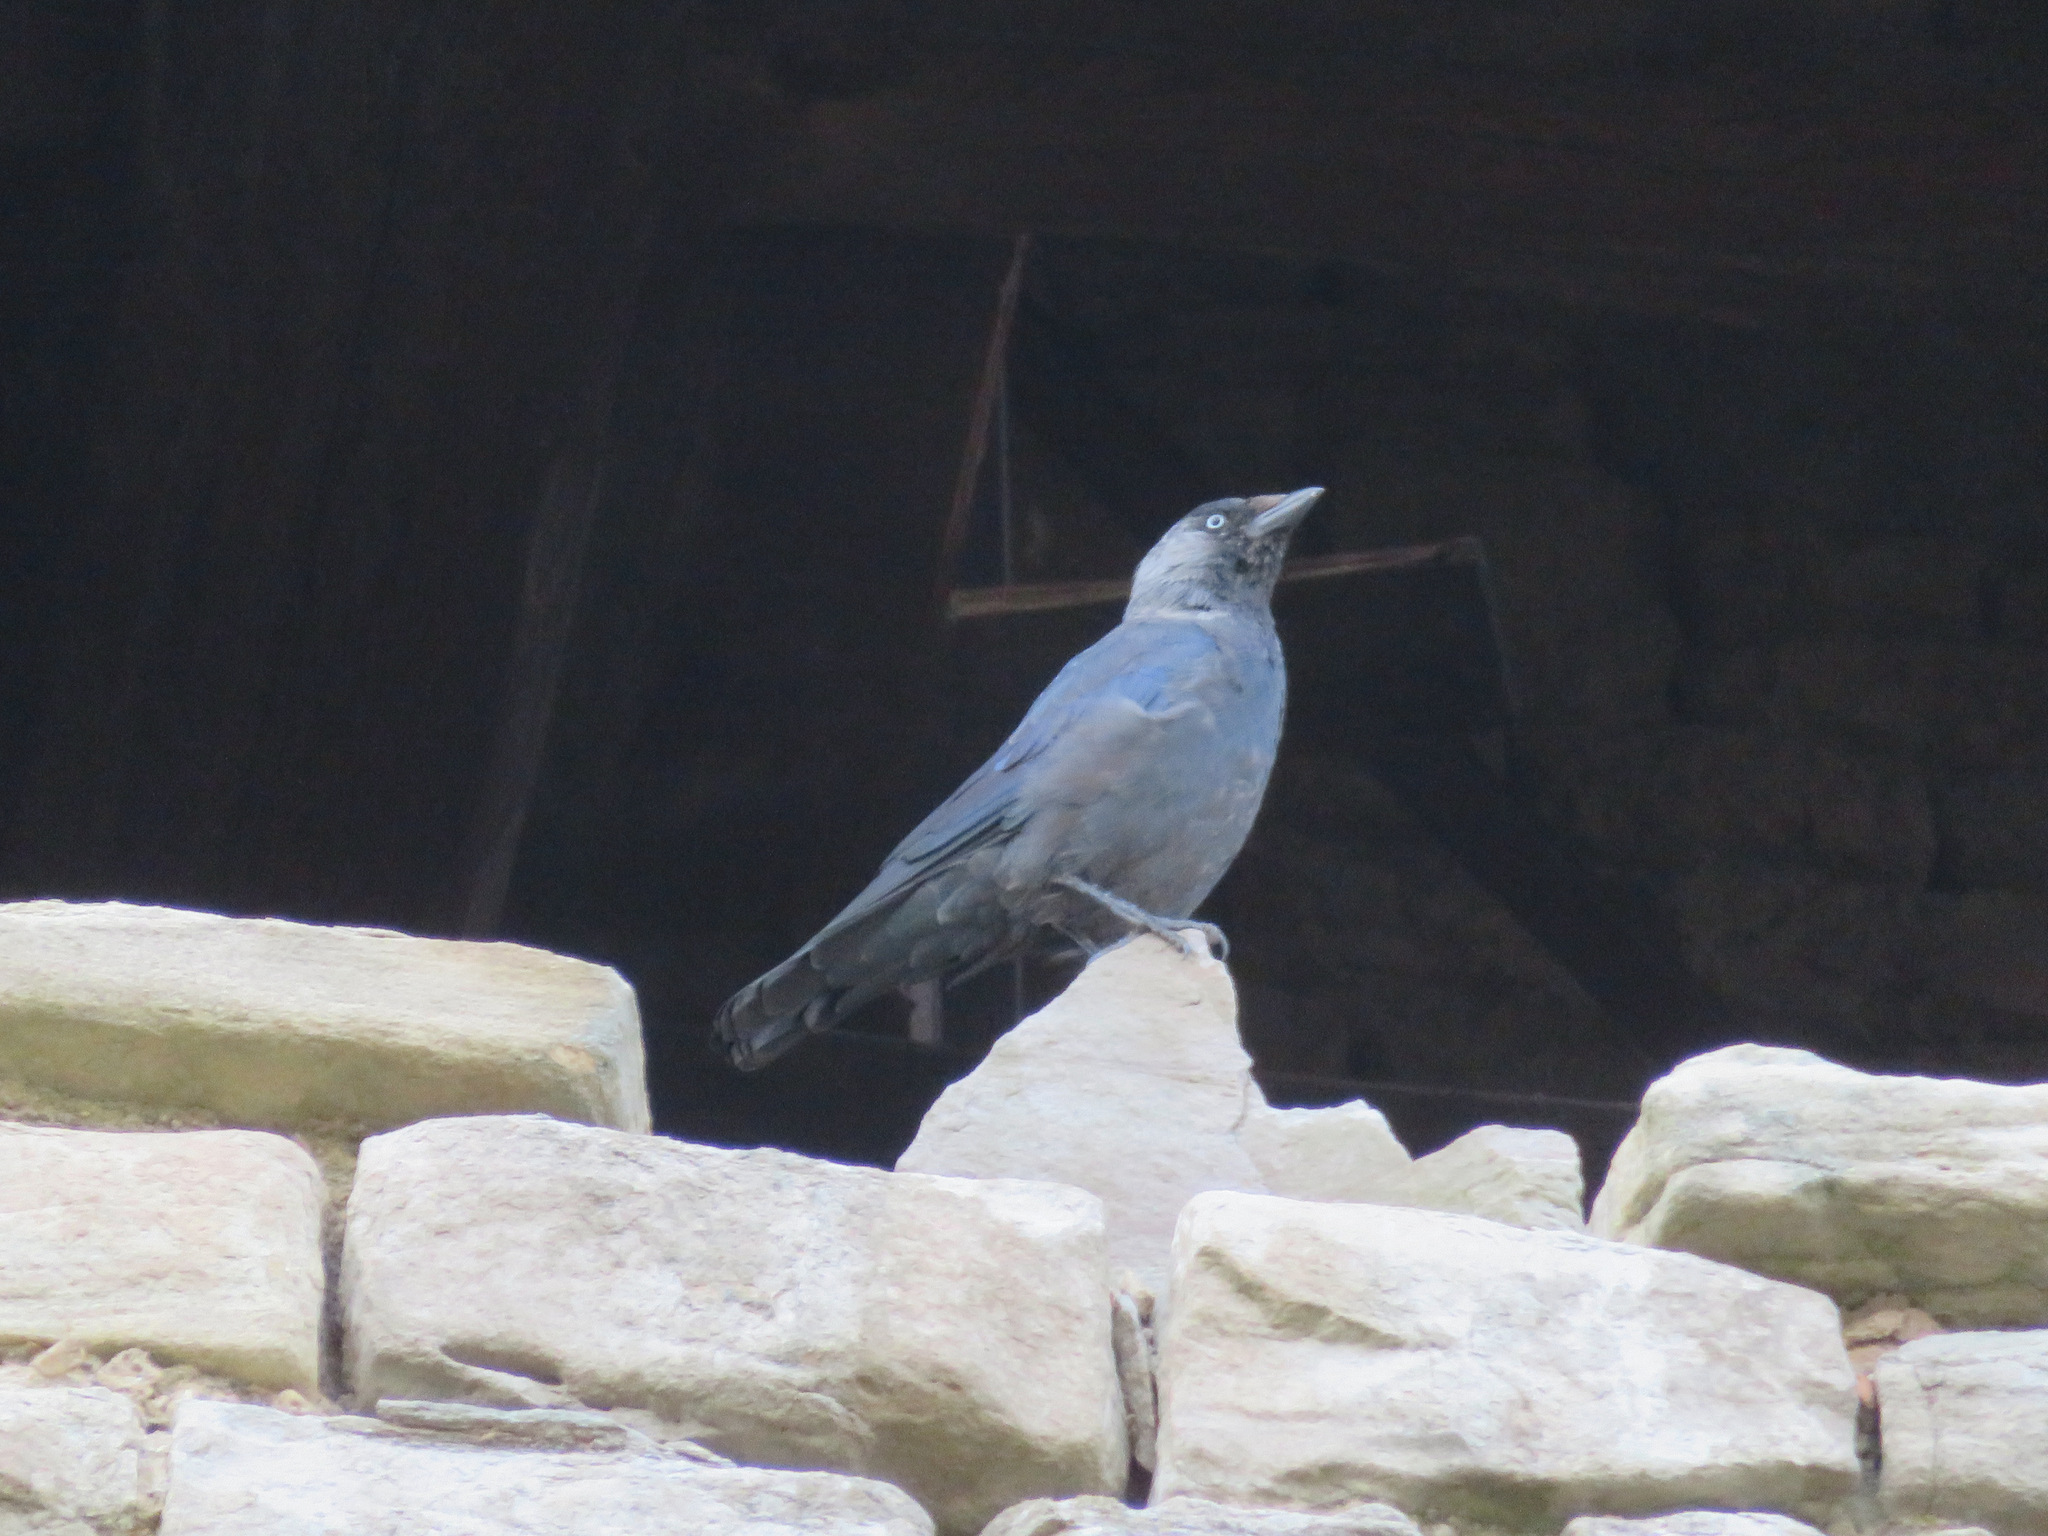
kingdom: Animalia
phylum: Chordata
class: Aves
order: Passeriformes
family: Corvidae
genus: Coloeus
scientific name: Coloeus monedula
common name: Western jackdaw
